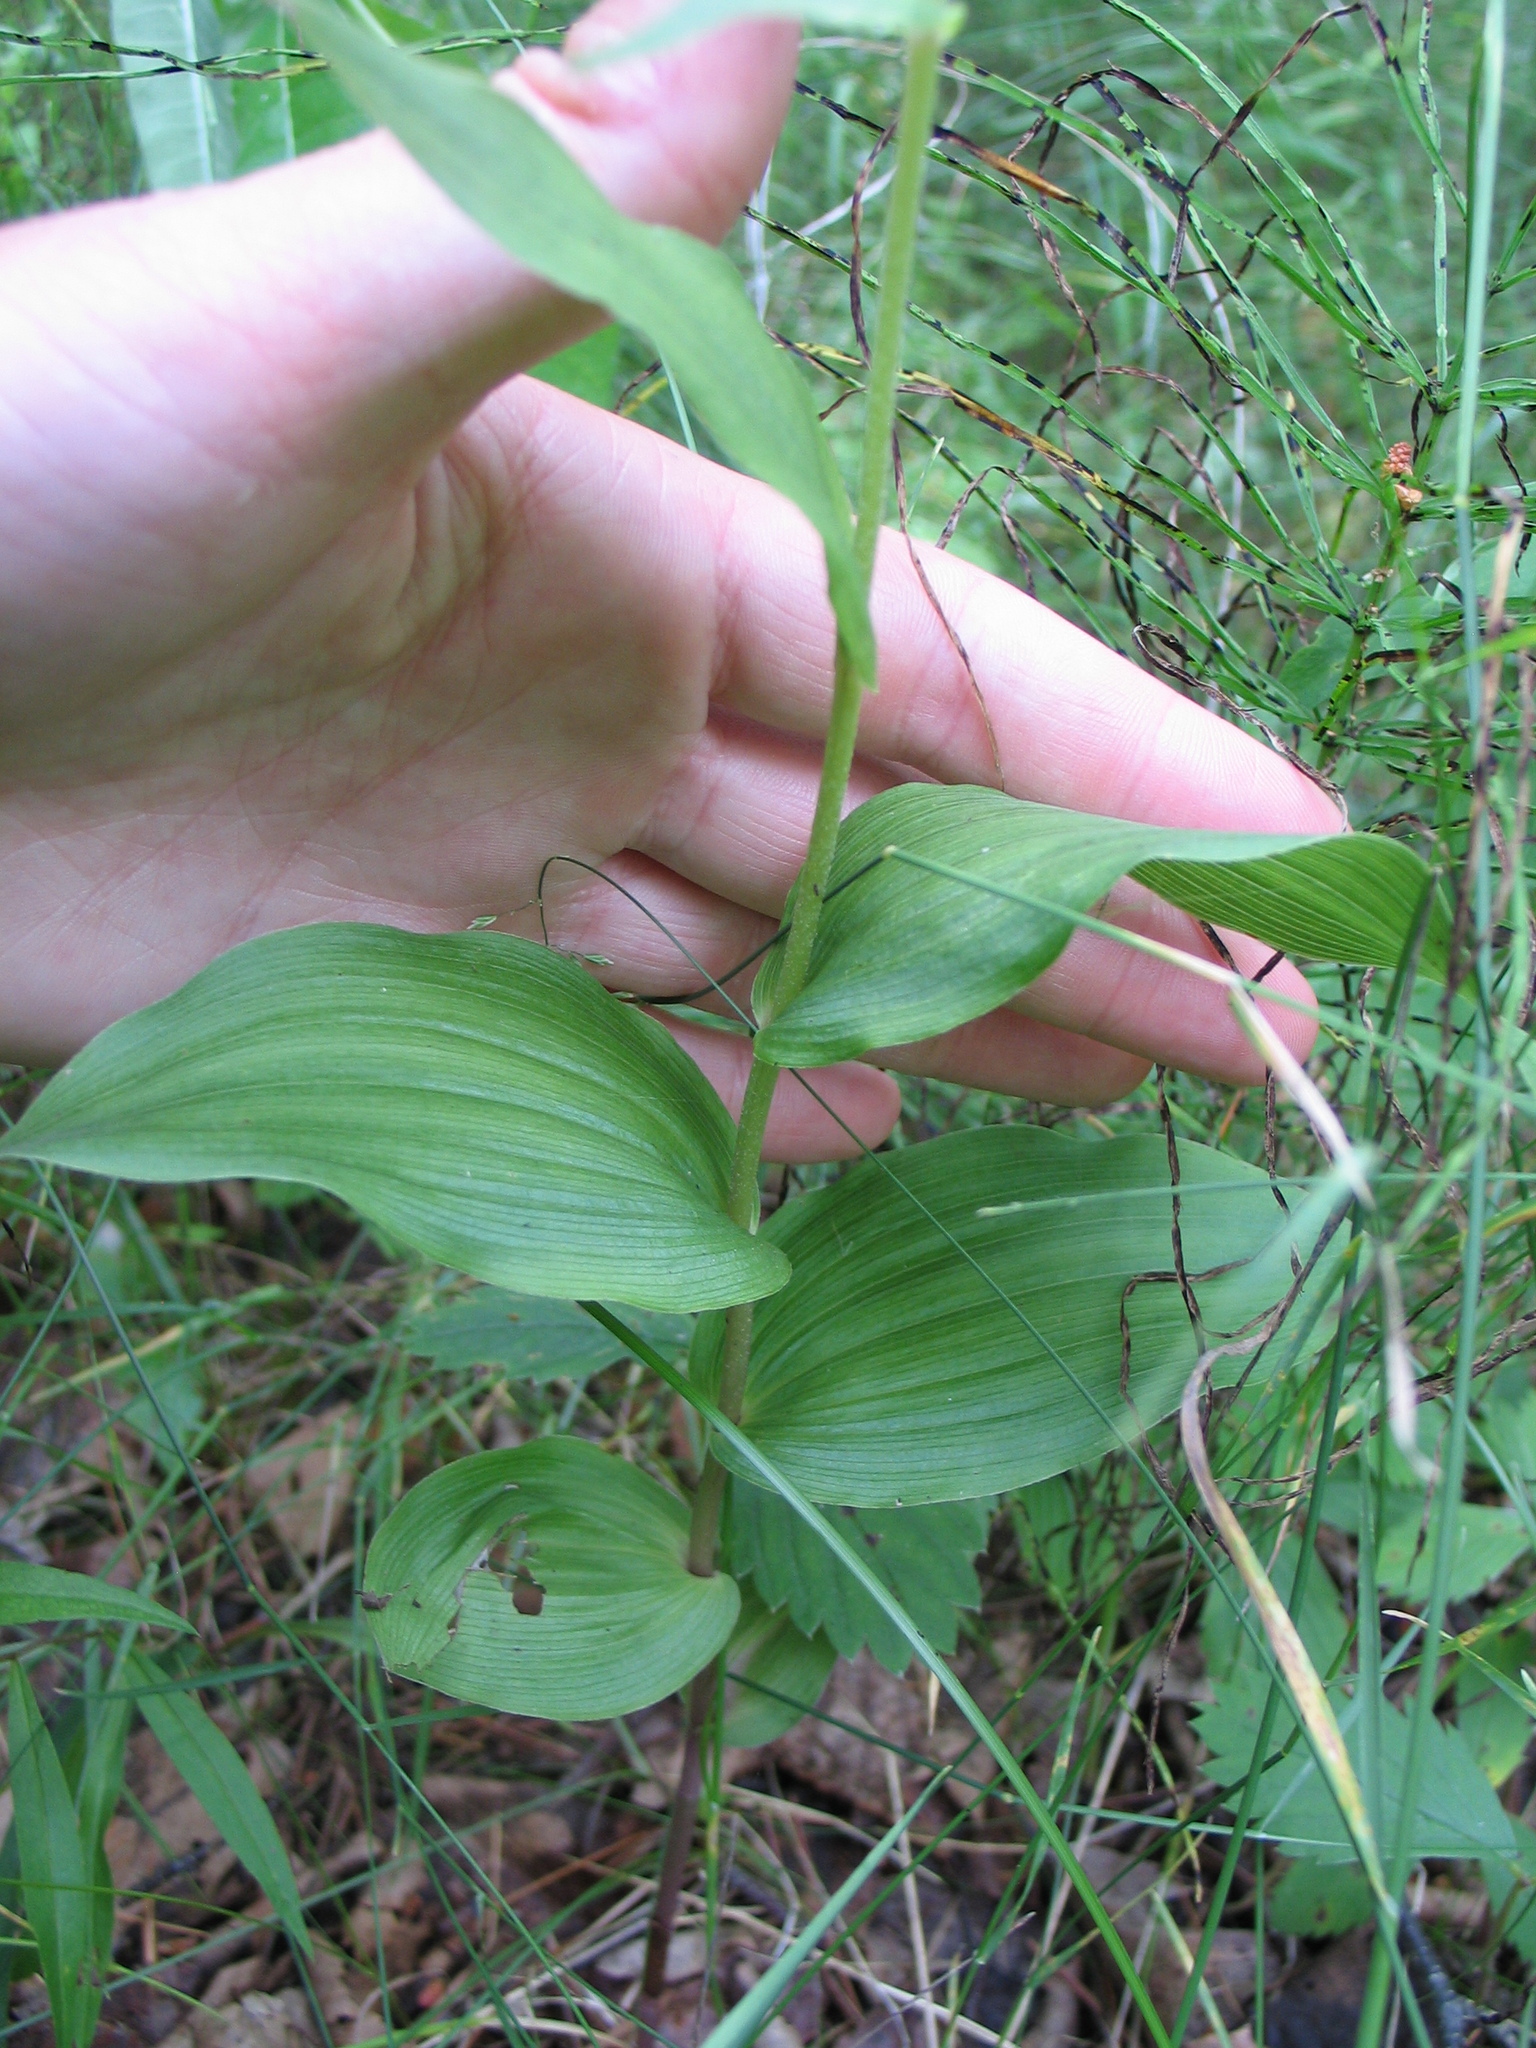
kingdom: Plantae
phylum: Tracheophyta
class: Liliopsida
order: Asparagales
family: Orchidaceae
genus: Epipactis
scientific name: Epipactis helleborine
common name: Broad-leaved helleborine
